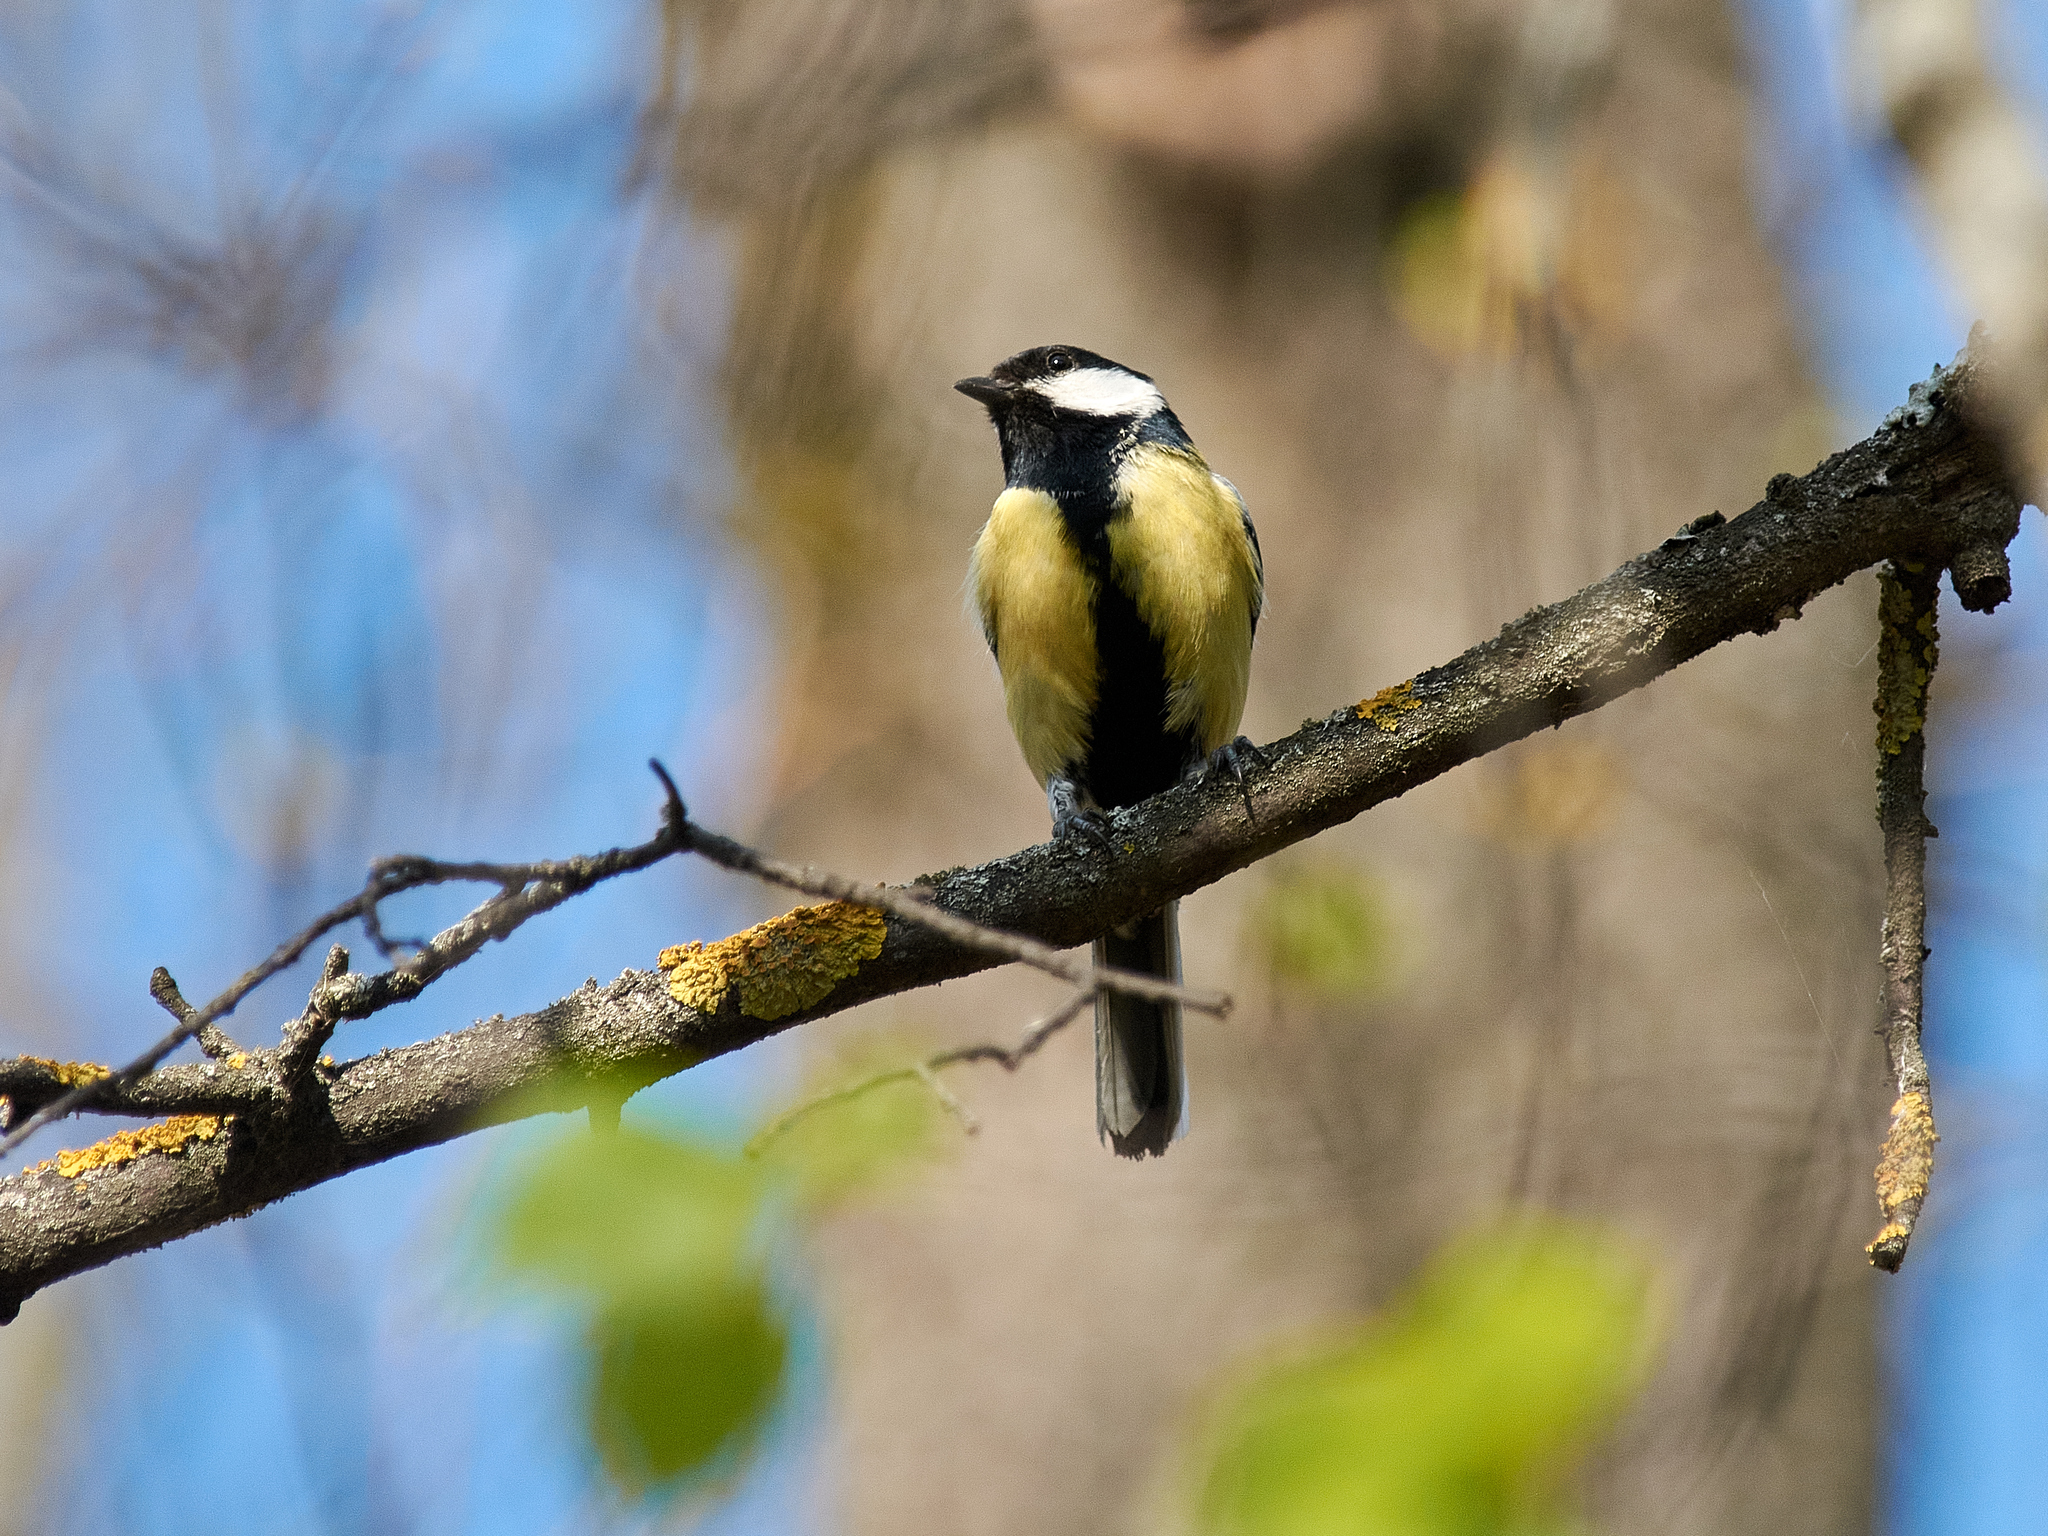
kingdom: Animalia
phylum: Chordata
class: Aves
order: Passeriformes
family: Paridae
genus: Parus
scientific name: Parus major
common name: Great tit
